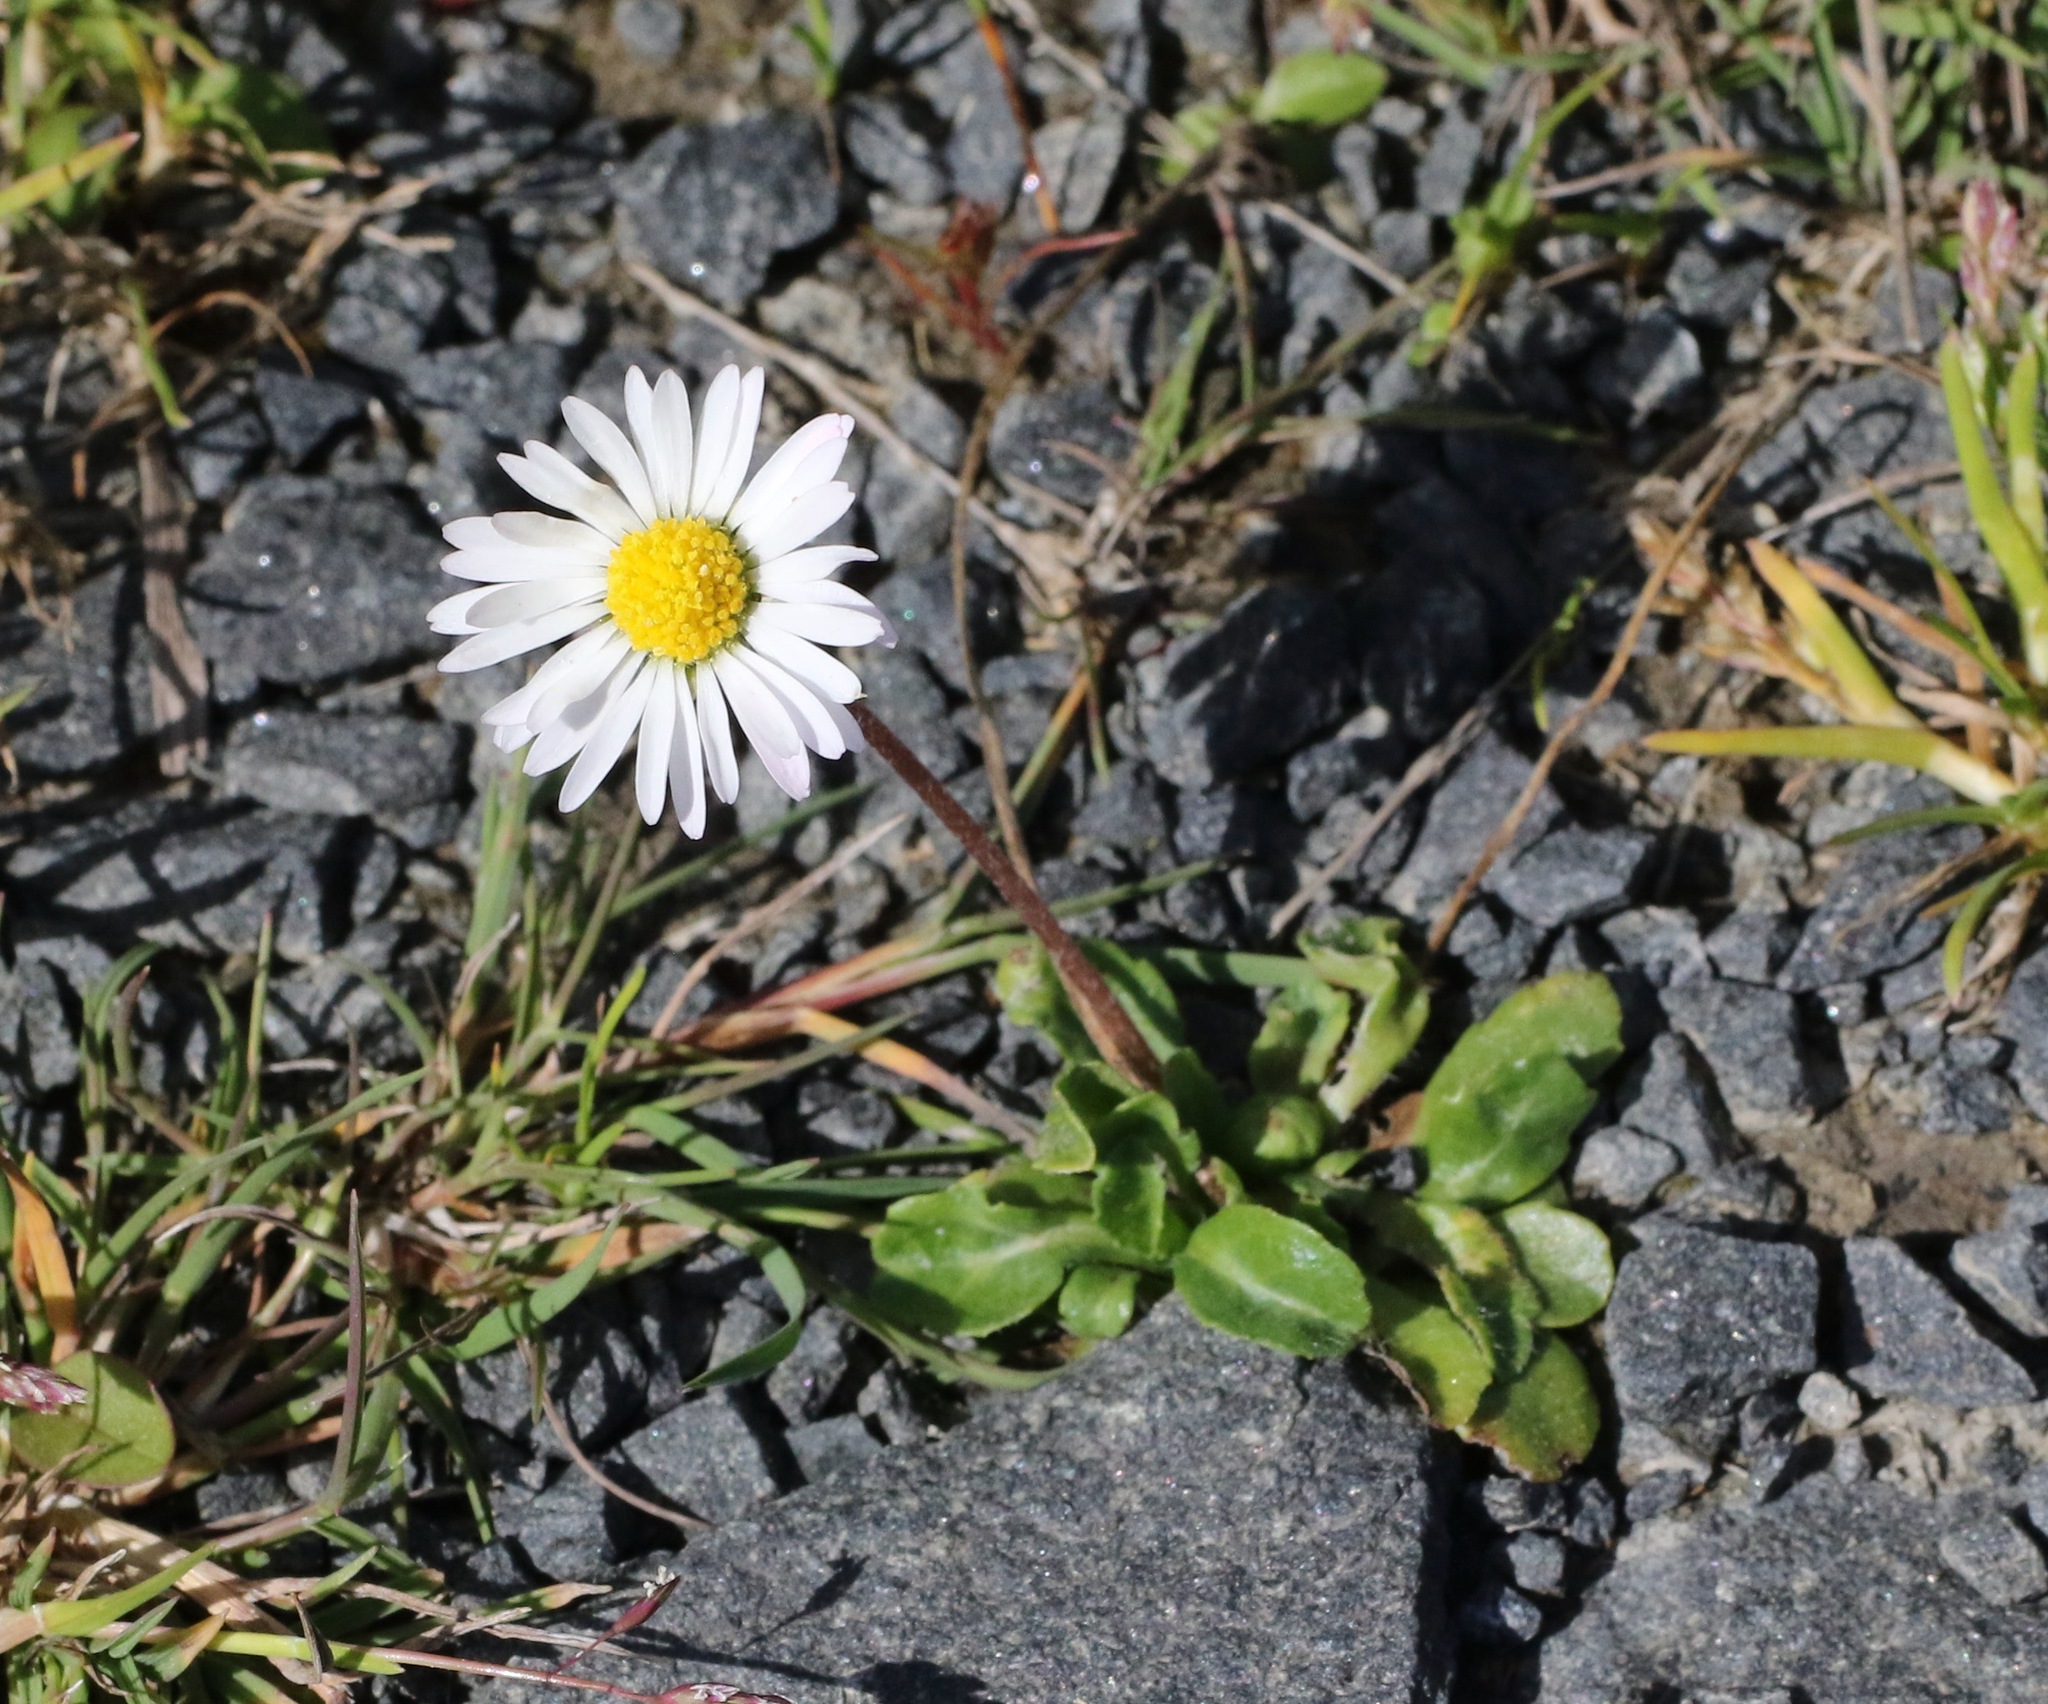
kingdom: Plantae
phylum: Tracheophyta
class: Magnoliopsida
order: Asterales
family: Asteraceae
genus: Bellis
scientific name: Bellis perennis
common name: Lawndaisy
